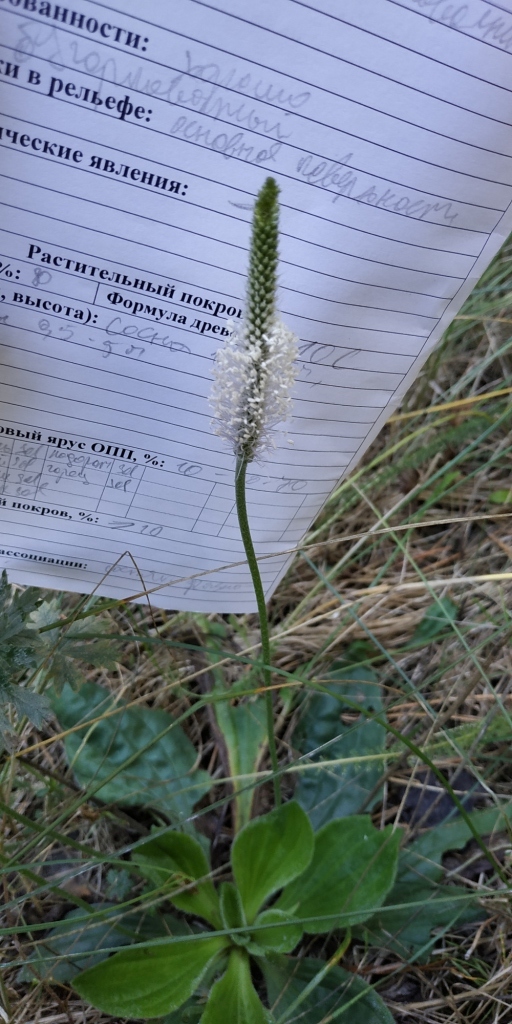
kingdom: Plantae
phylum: Tracheophyta
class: Magnoliopsida
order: Lamiales
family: Plantaginaceae
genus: Plantago
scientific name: Plantago media
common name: Hoary plantain
